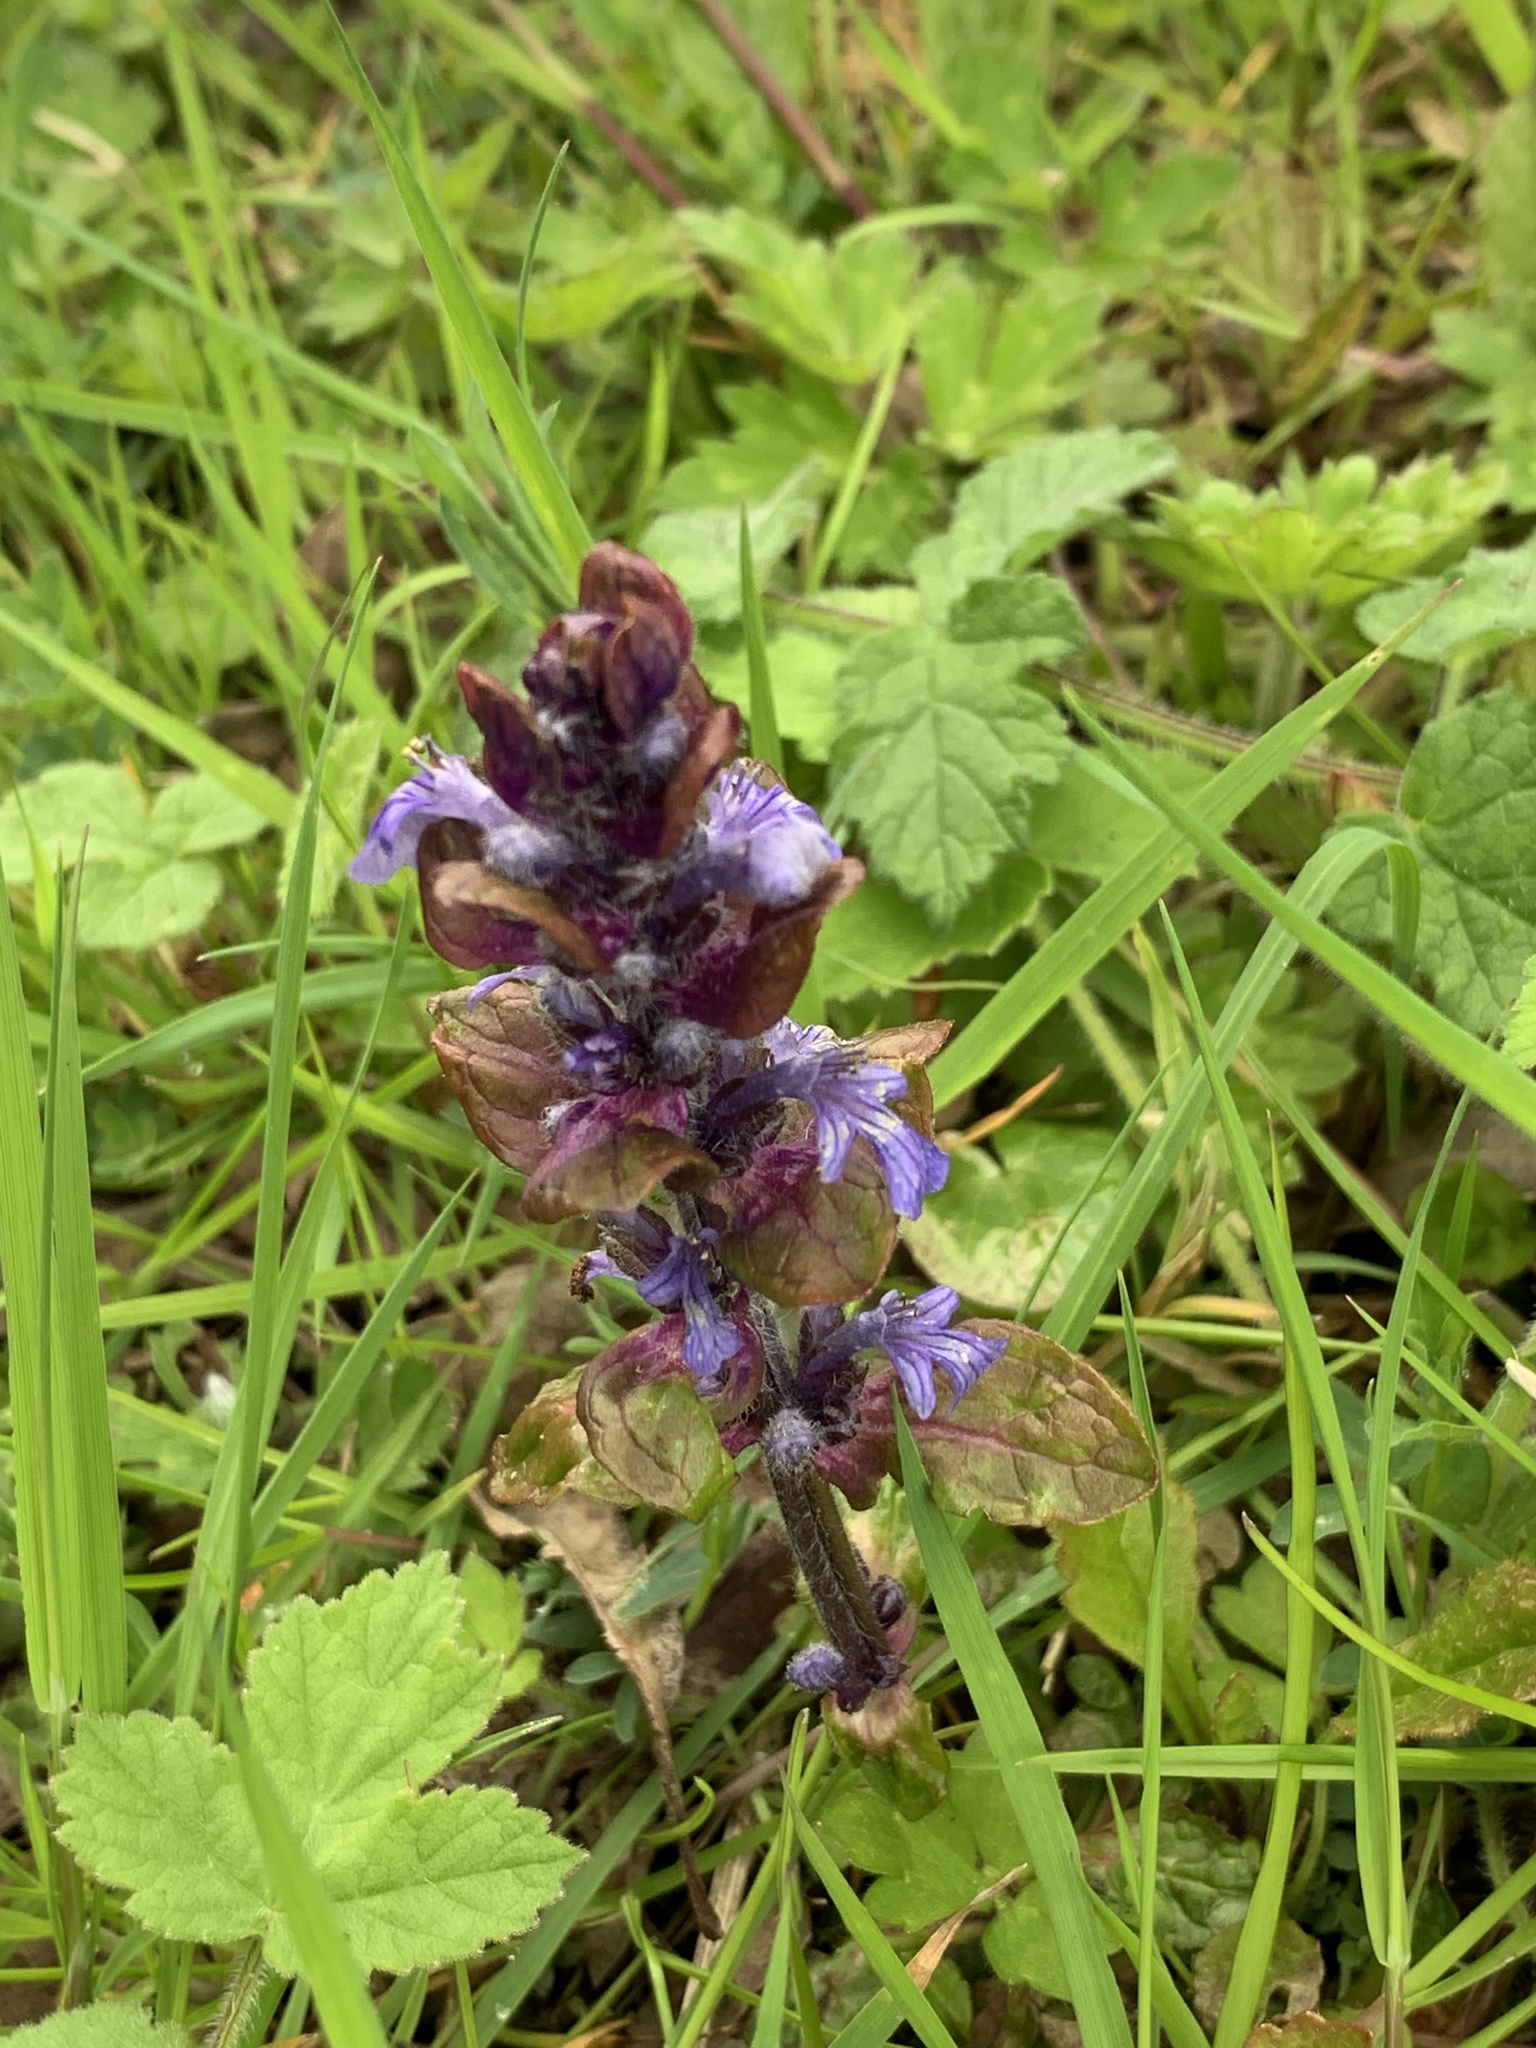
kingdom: Plantae
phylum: Tracheophyta
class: Magnoliopsida
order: Lamiales
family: Lamiaceae
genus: Ajuga
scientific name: Ajuga reptans
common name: Bugle
